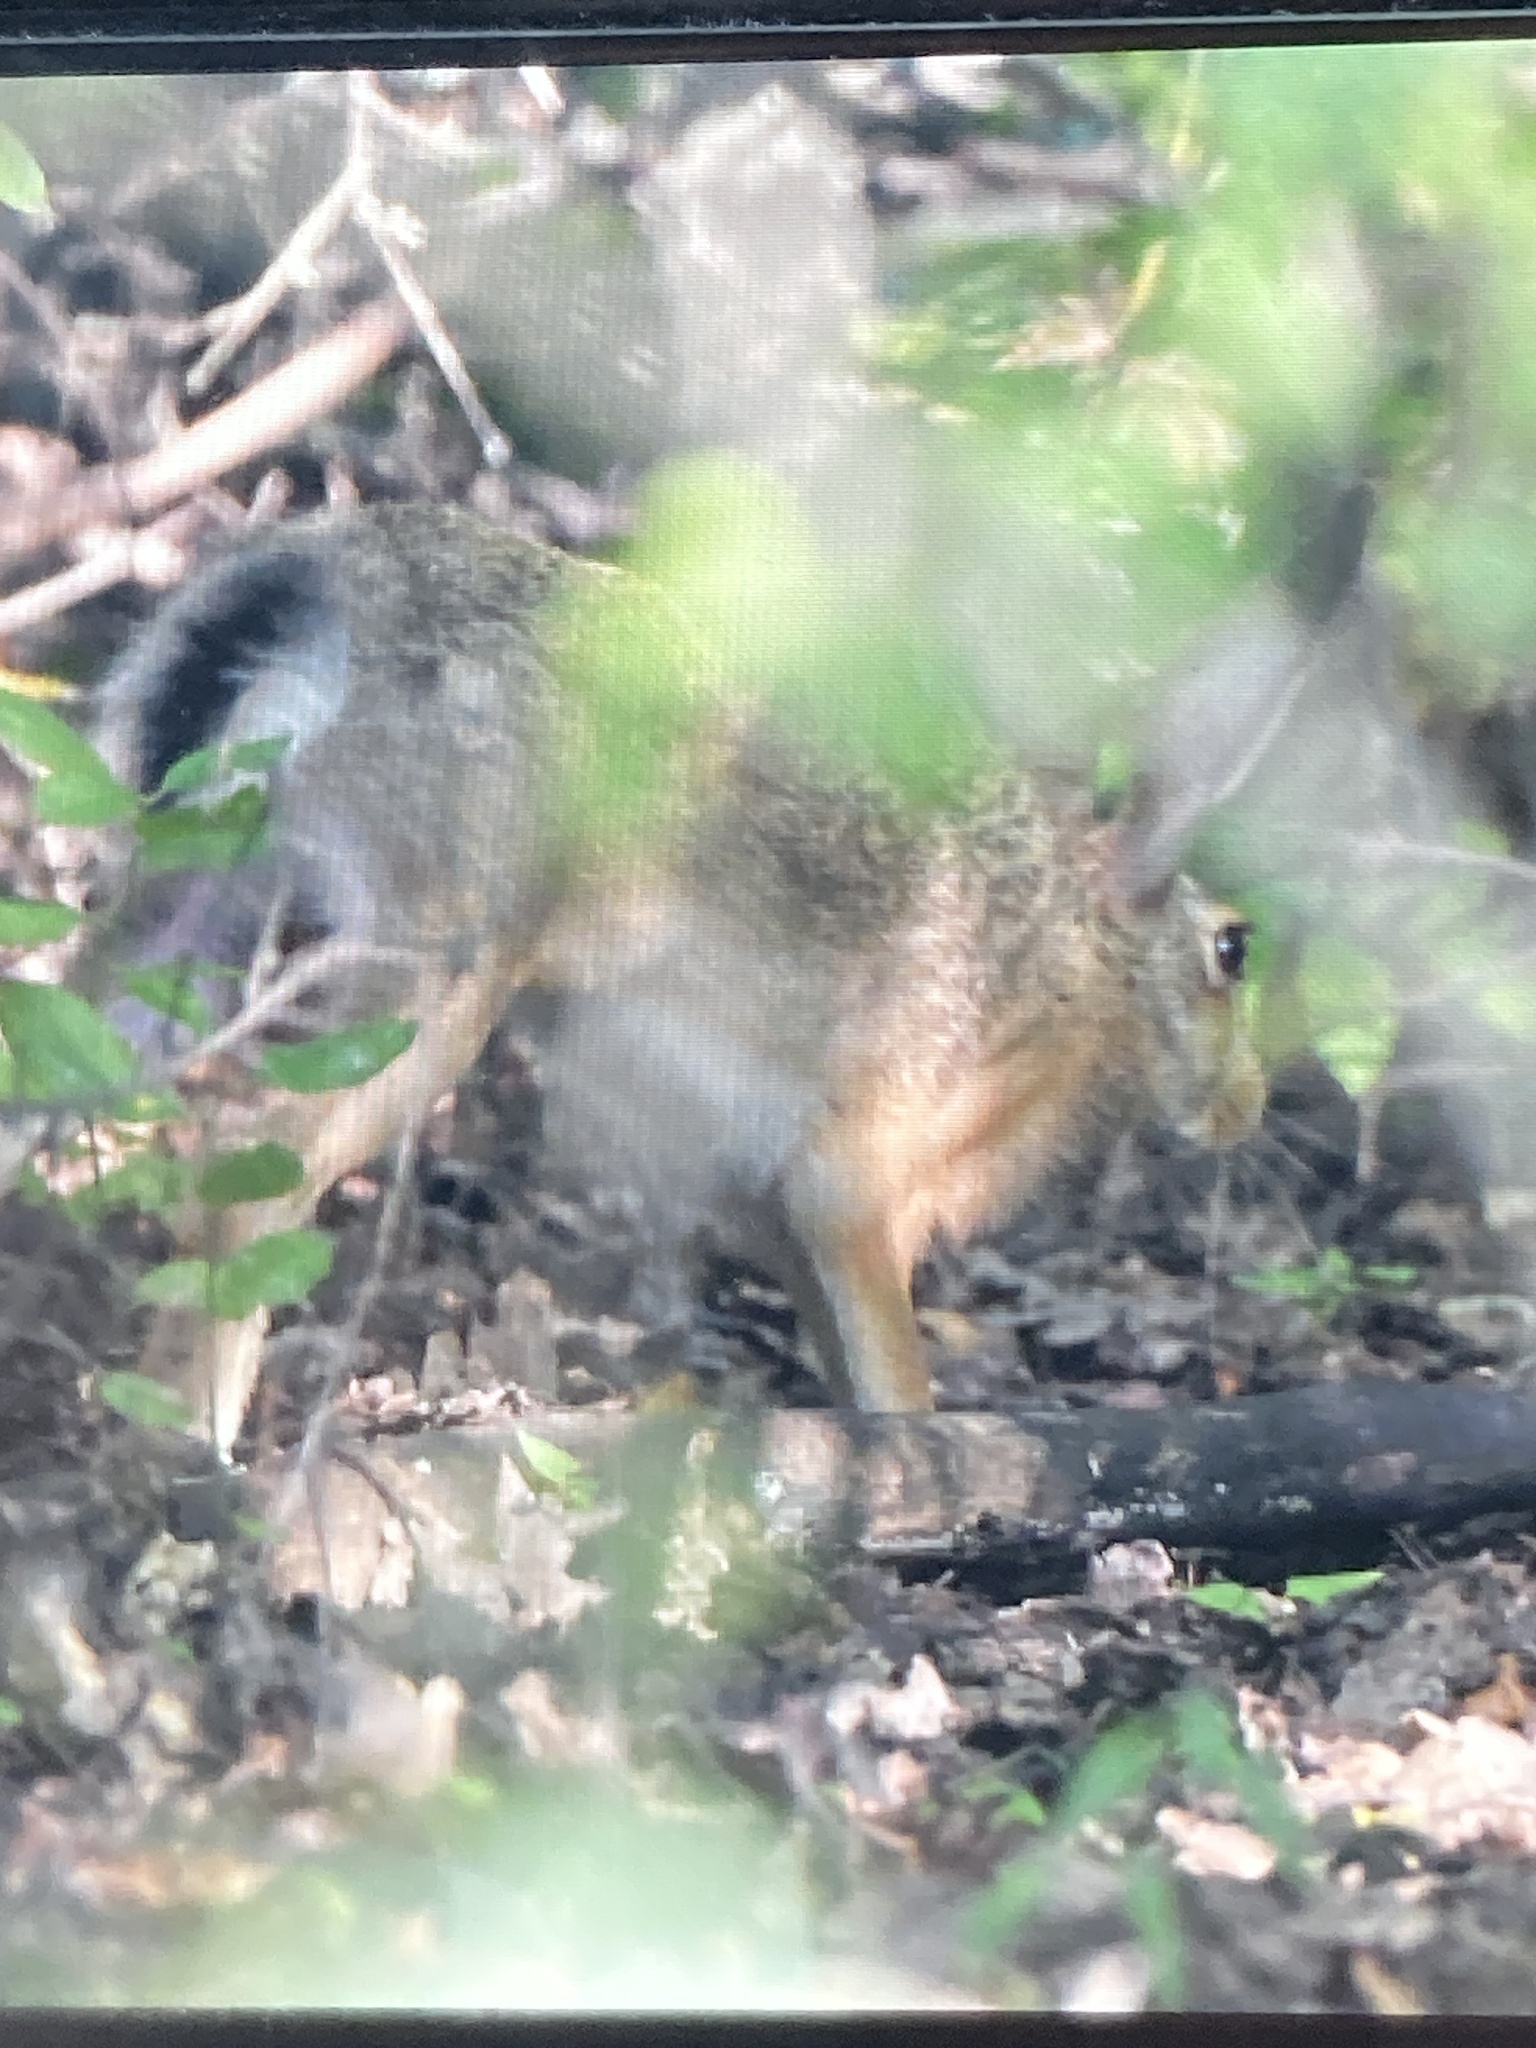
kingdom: Animalia
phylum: Chordata
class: Mammalia
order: Lagomorpha
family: Leporidae
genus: Lepus
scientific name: Lepus europaeus
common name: European hare
